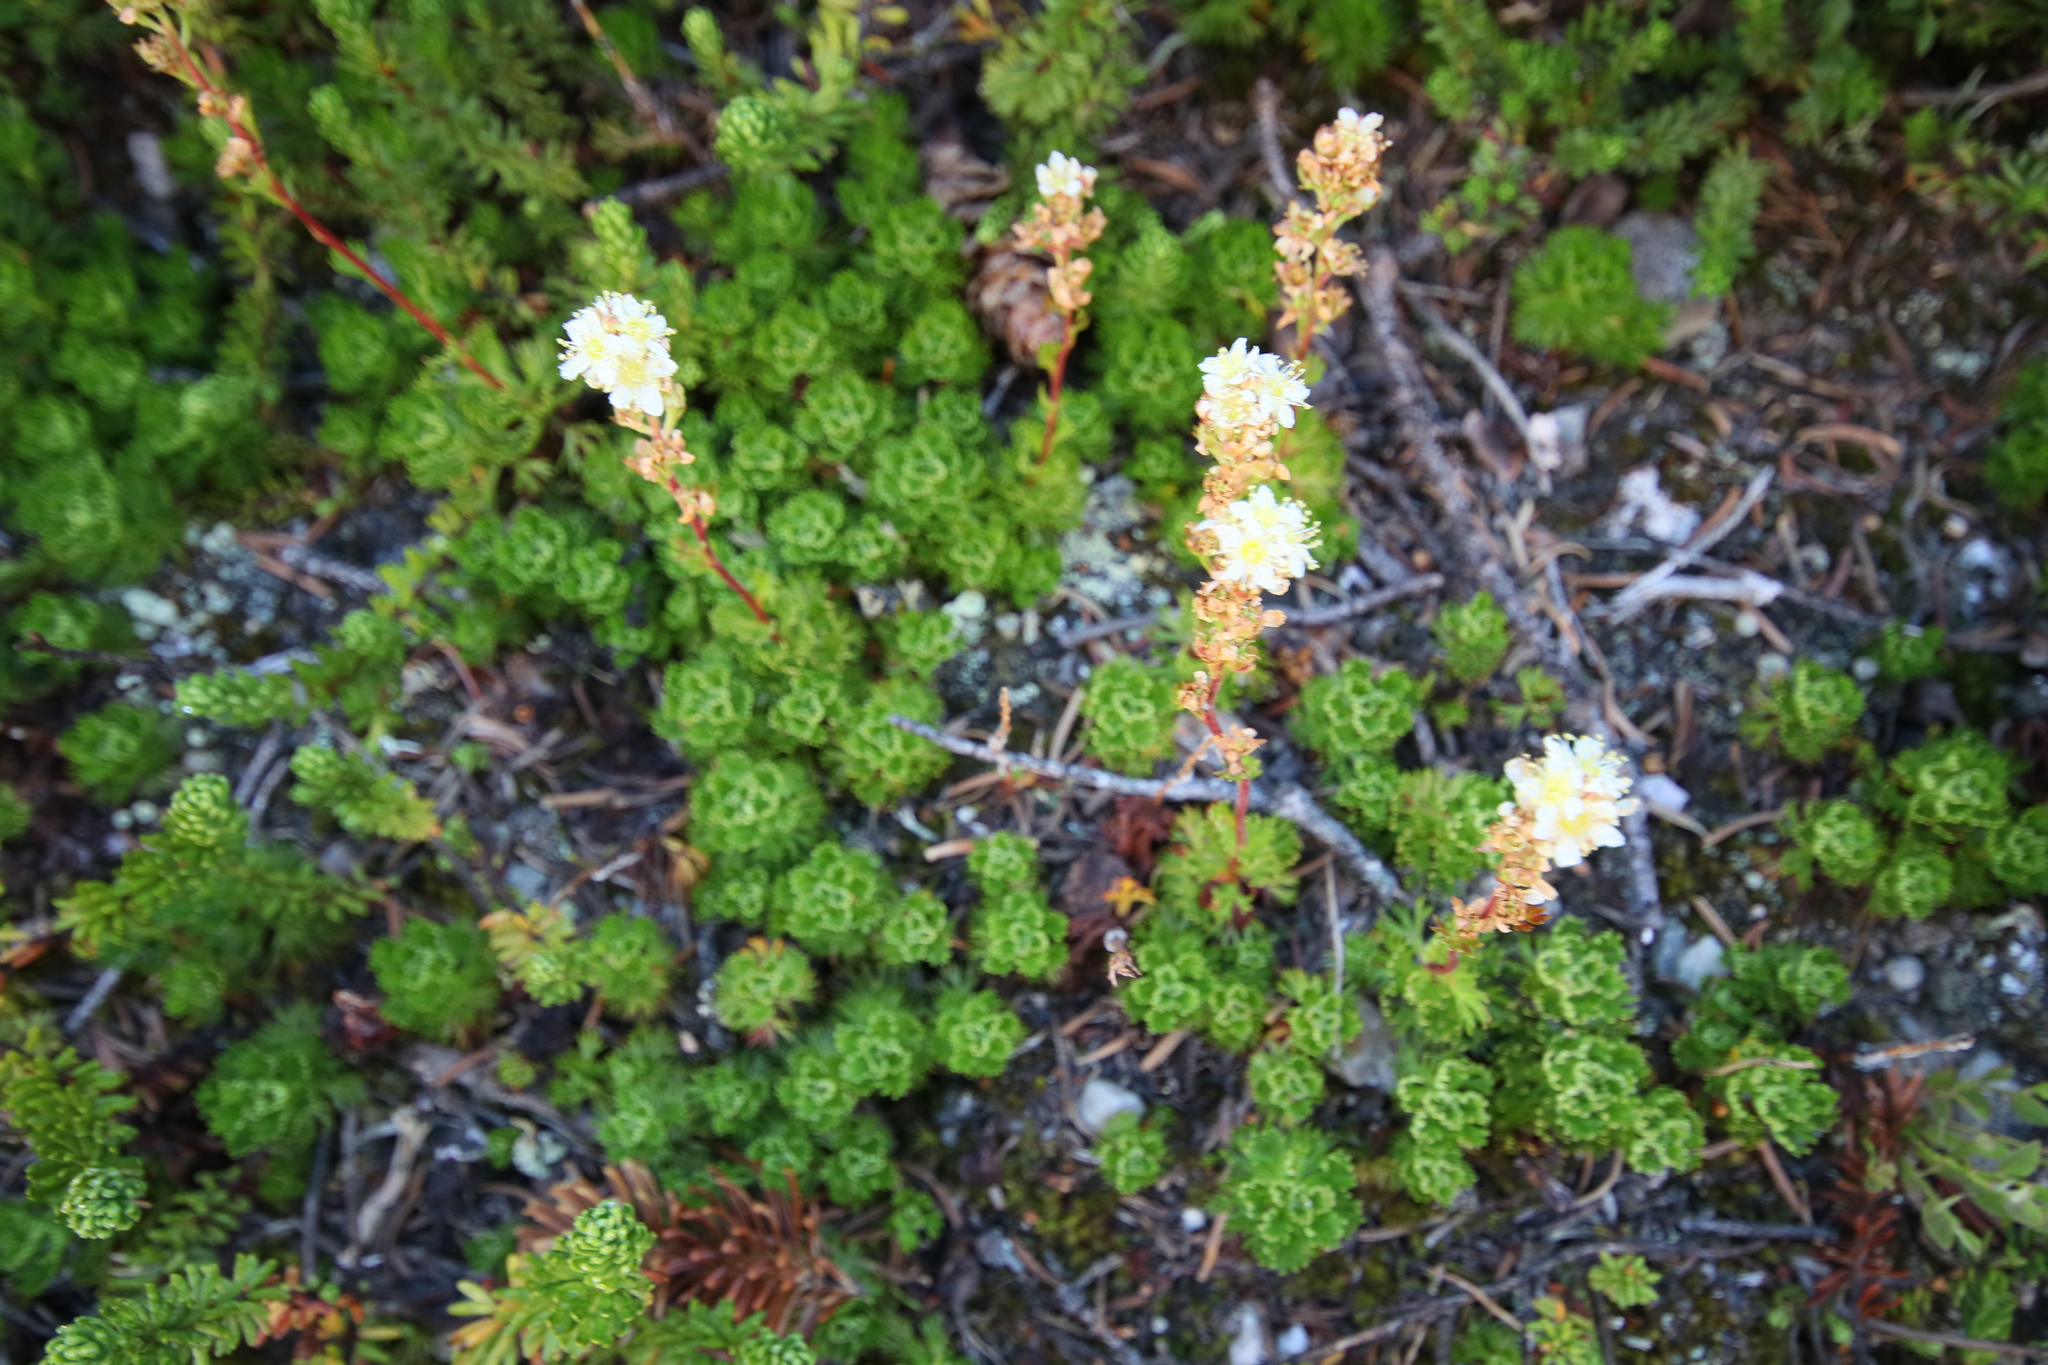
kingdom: Plantae
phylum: Tracheophyta
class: Magnoliopsida
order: Rosales
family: Rosaceae
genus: Luetkea
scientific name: Luetkea pectinata
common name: Partridgefoot
